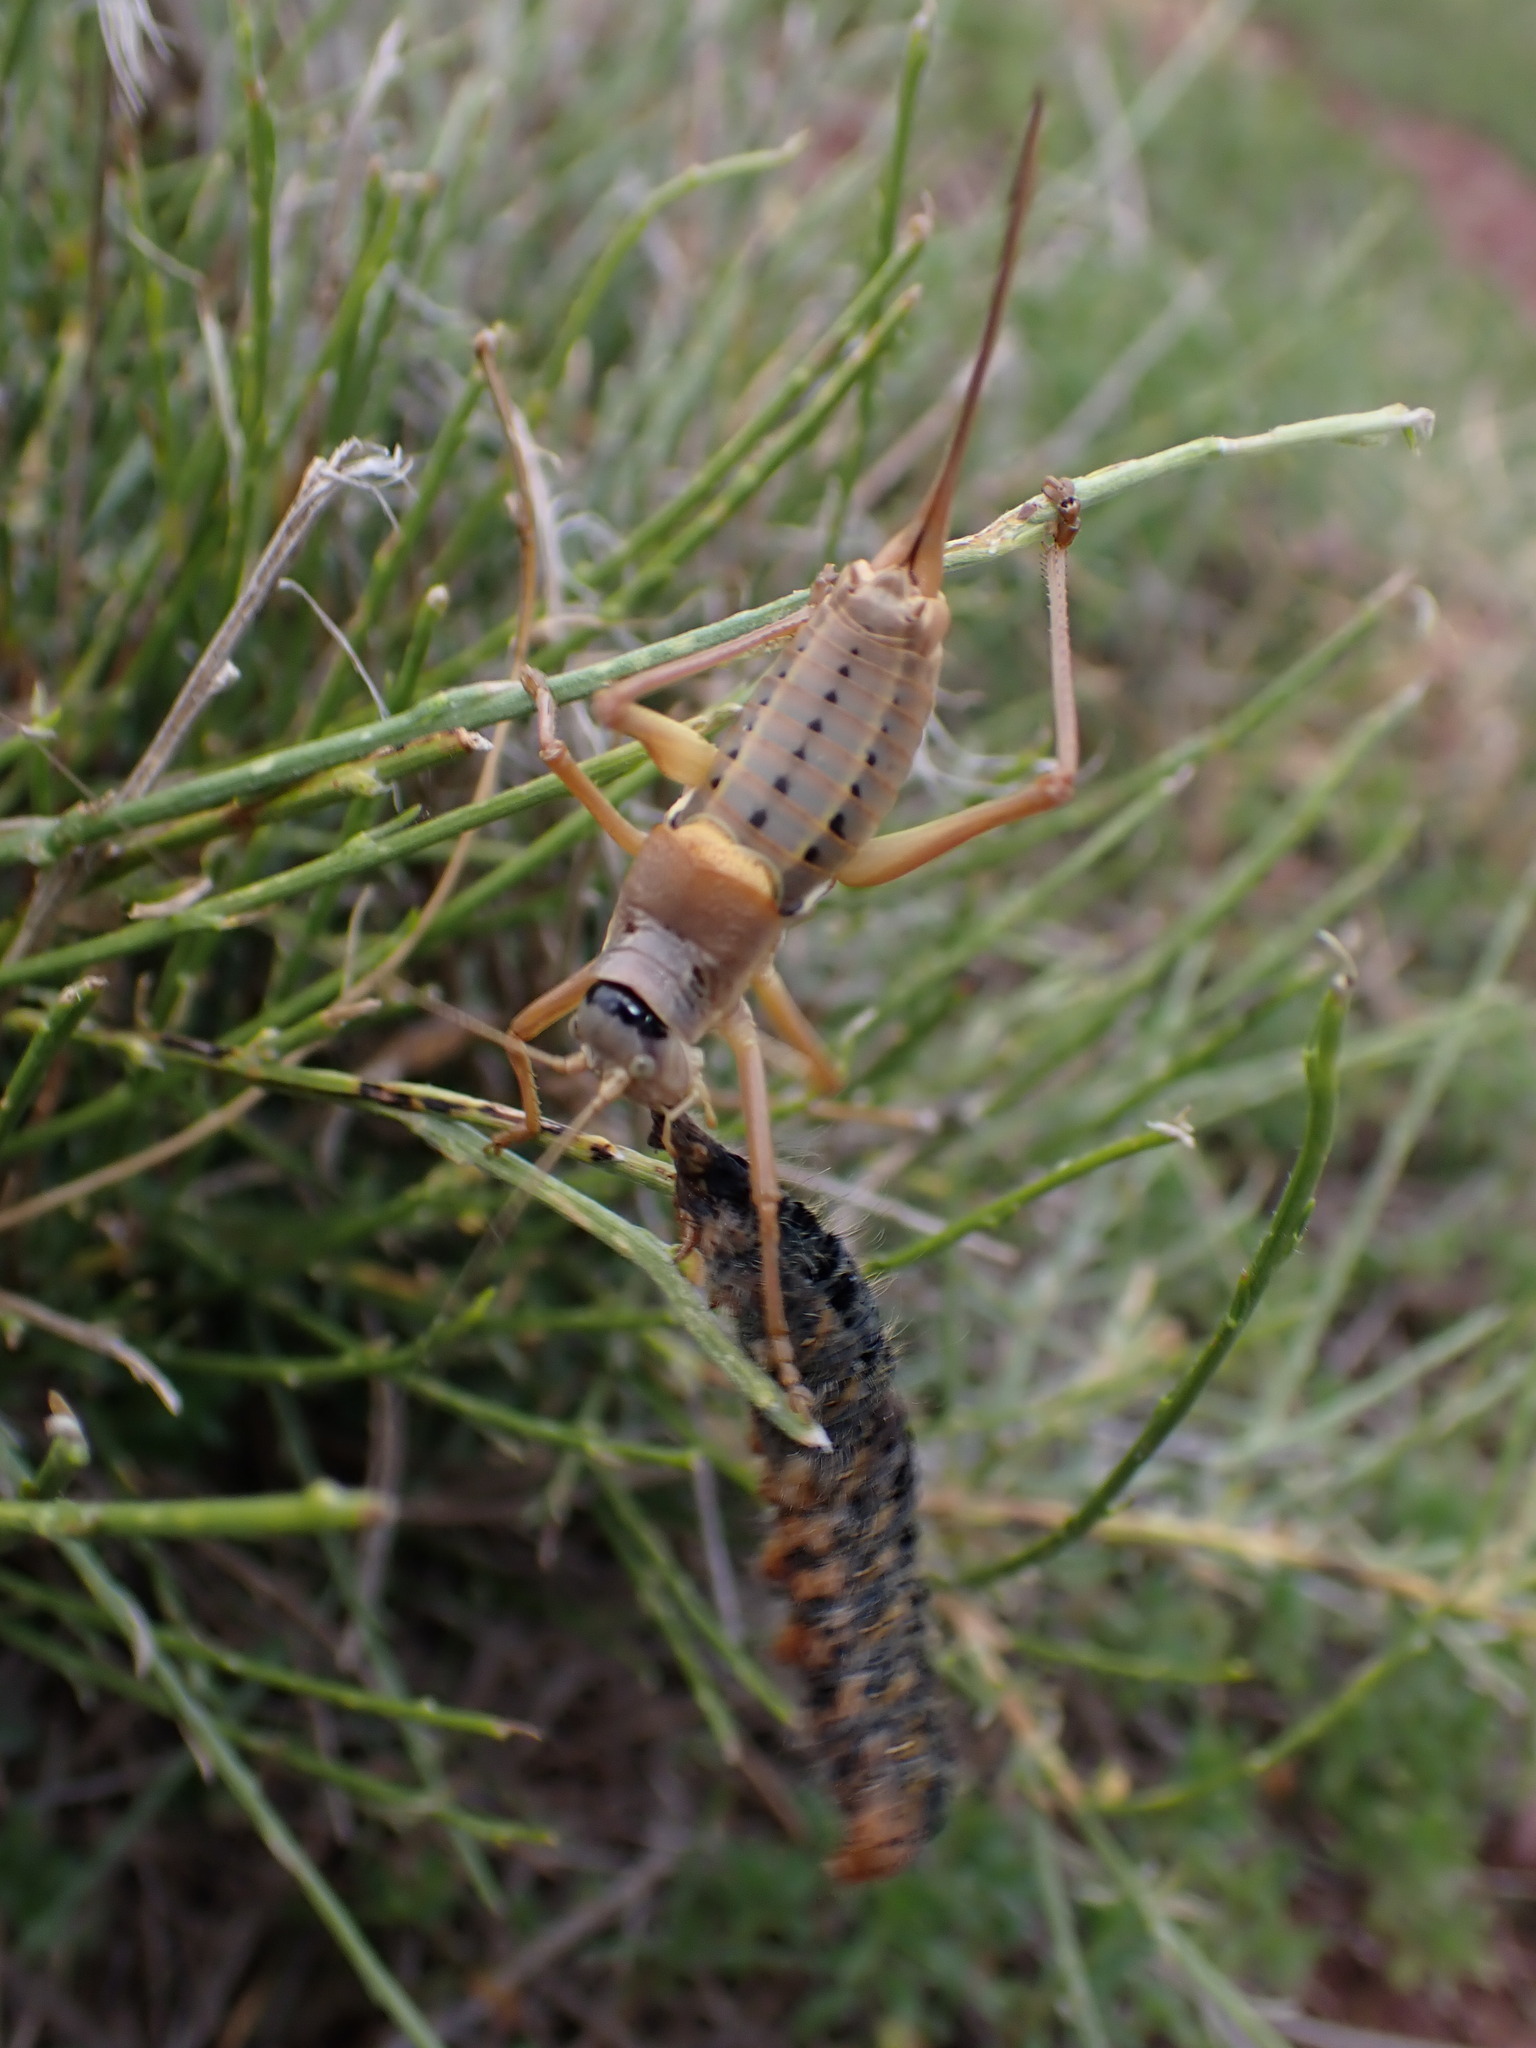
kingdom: Animalia
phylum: Arthropoda
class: Insecta
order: Orthoptera
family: Tettigoniidae
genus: Ephippiger
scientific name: Ephippiger terrestris
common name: Alpine saddle-backed bush-cricket
